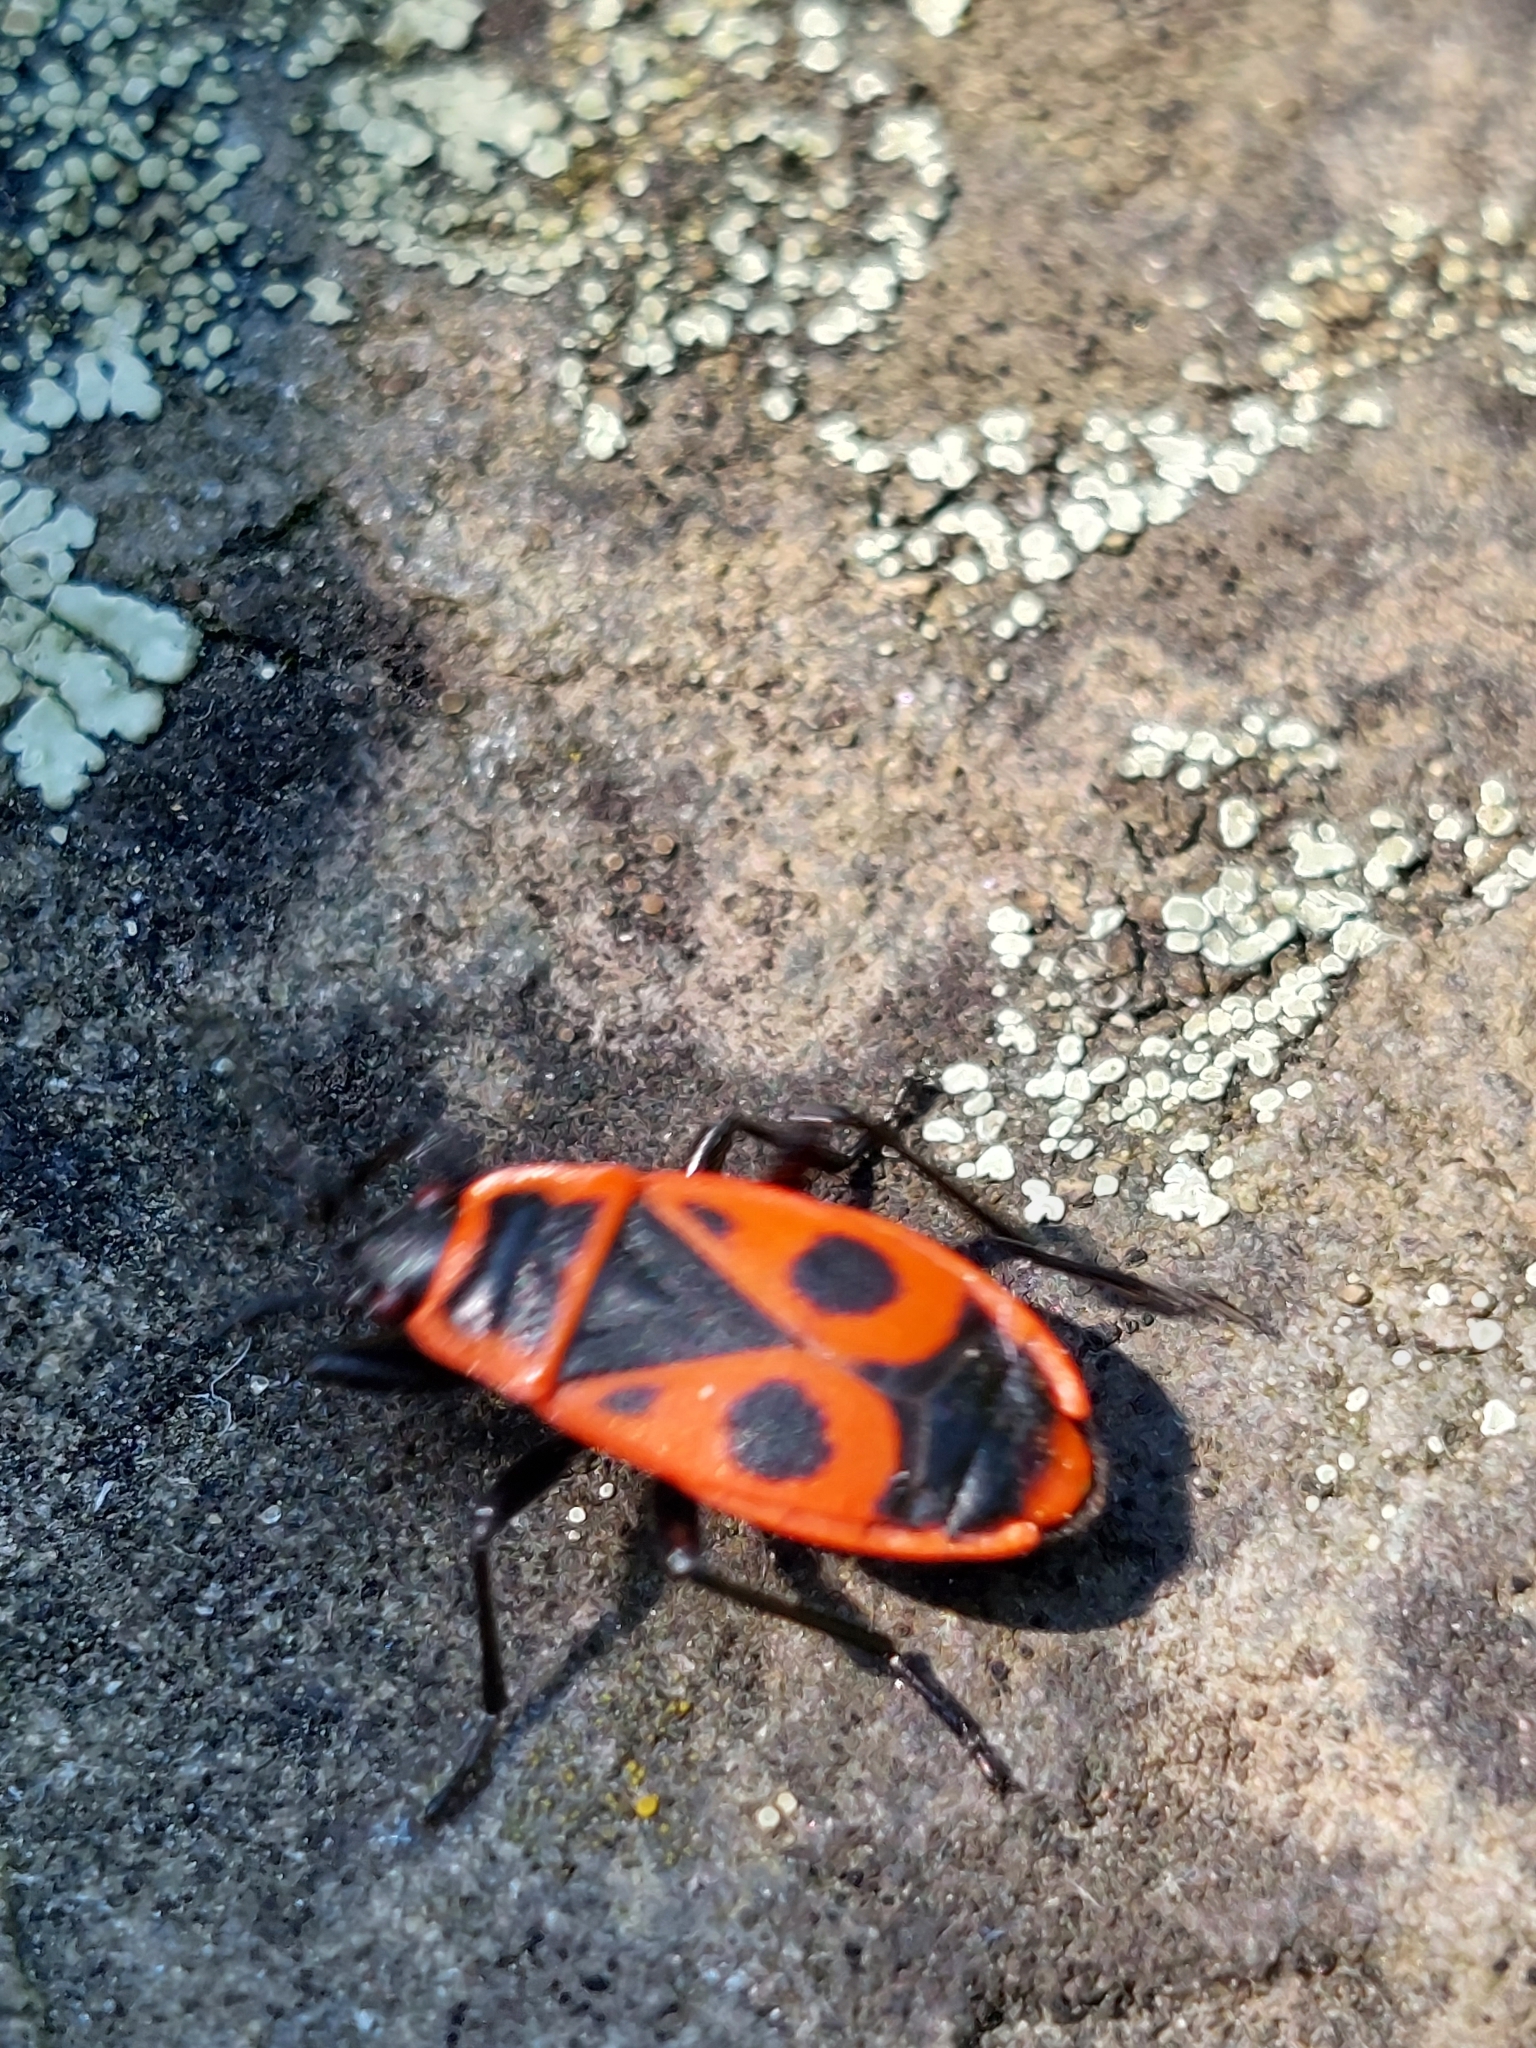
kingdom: Animalia
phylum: Arthropoda
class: Insecta
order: Hemiptera
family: Pyrrhocoridae
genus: Pyrrhocoris
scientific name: Pyrrhocoris apterus
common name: Firebug
